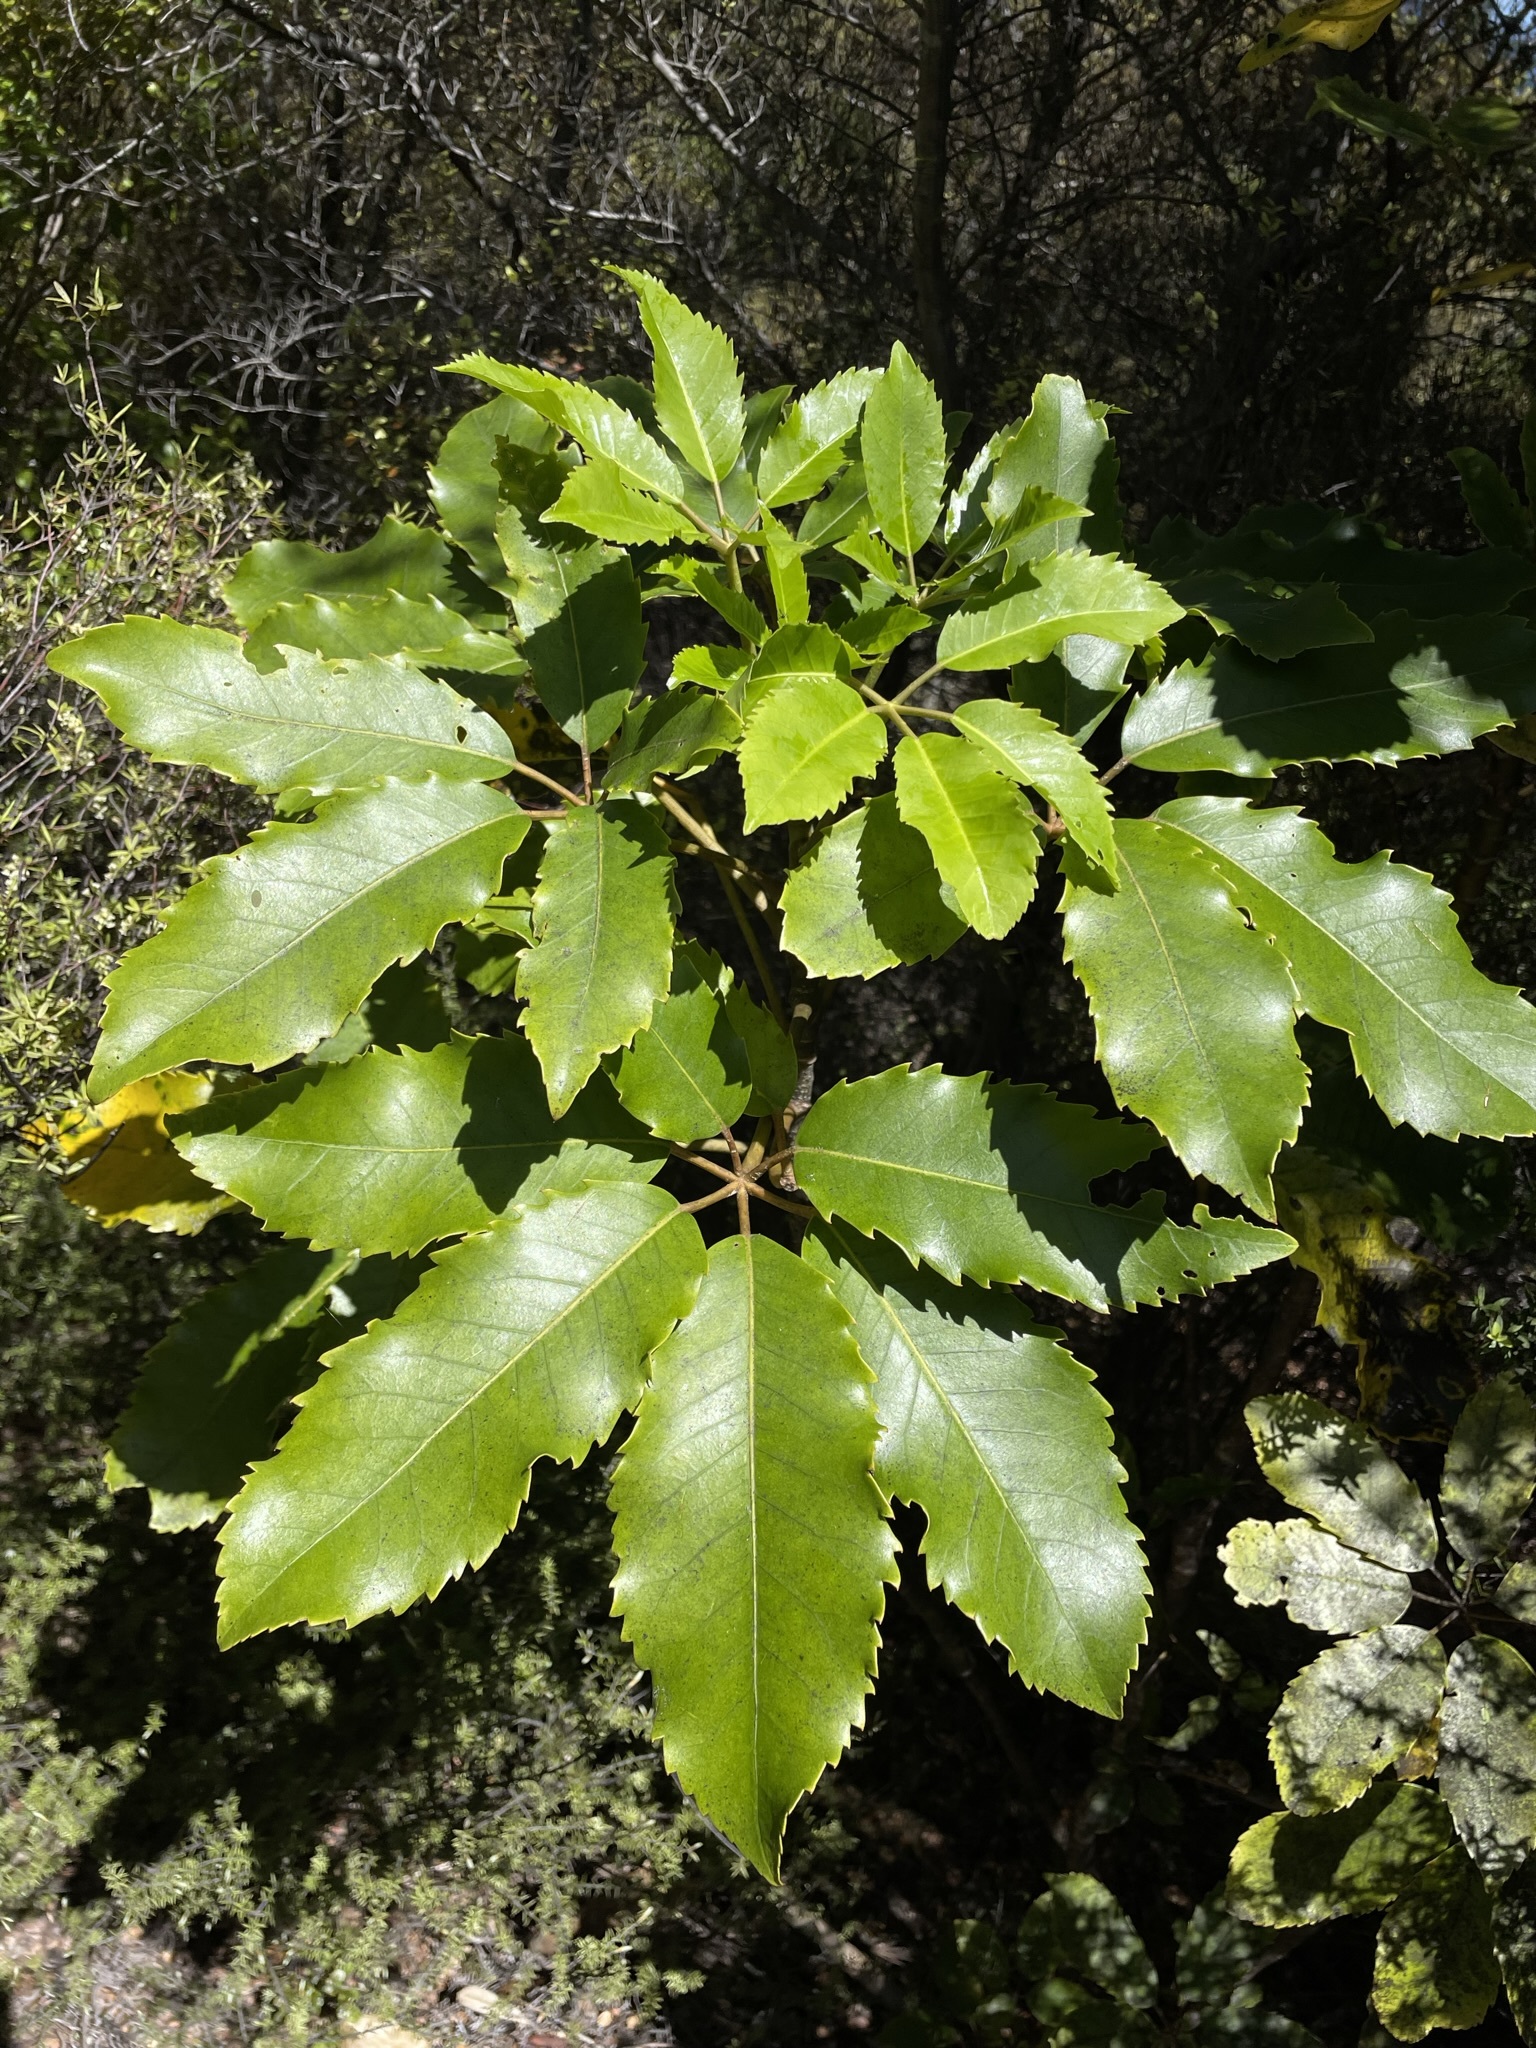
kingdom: Plantae
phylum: Tracheophyta
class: Magnoliopsida
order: Apiales
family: Araliaceae
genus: Neopanax
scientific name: Neopanax arboreus
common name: Five-fingers
